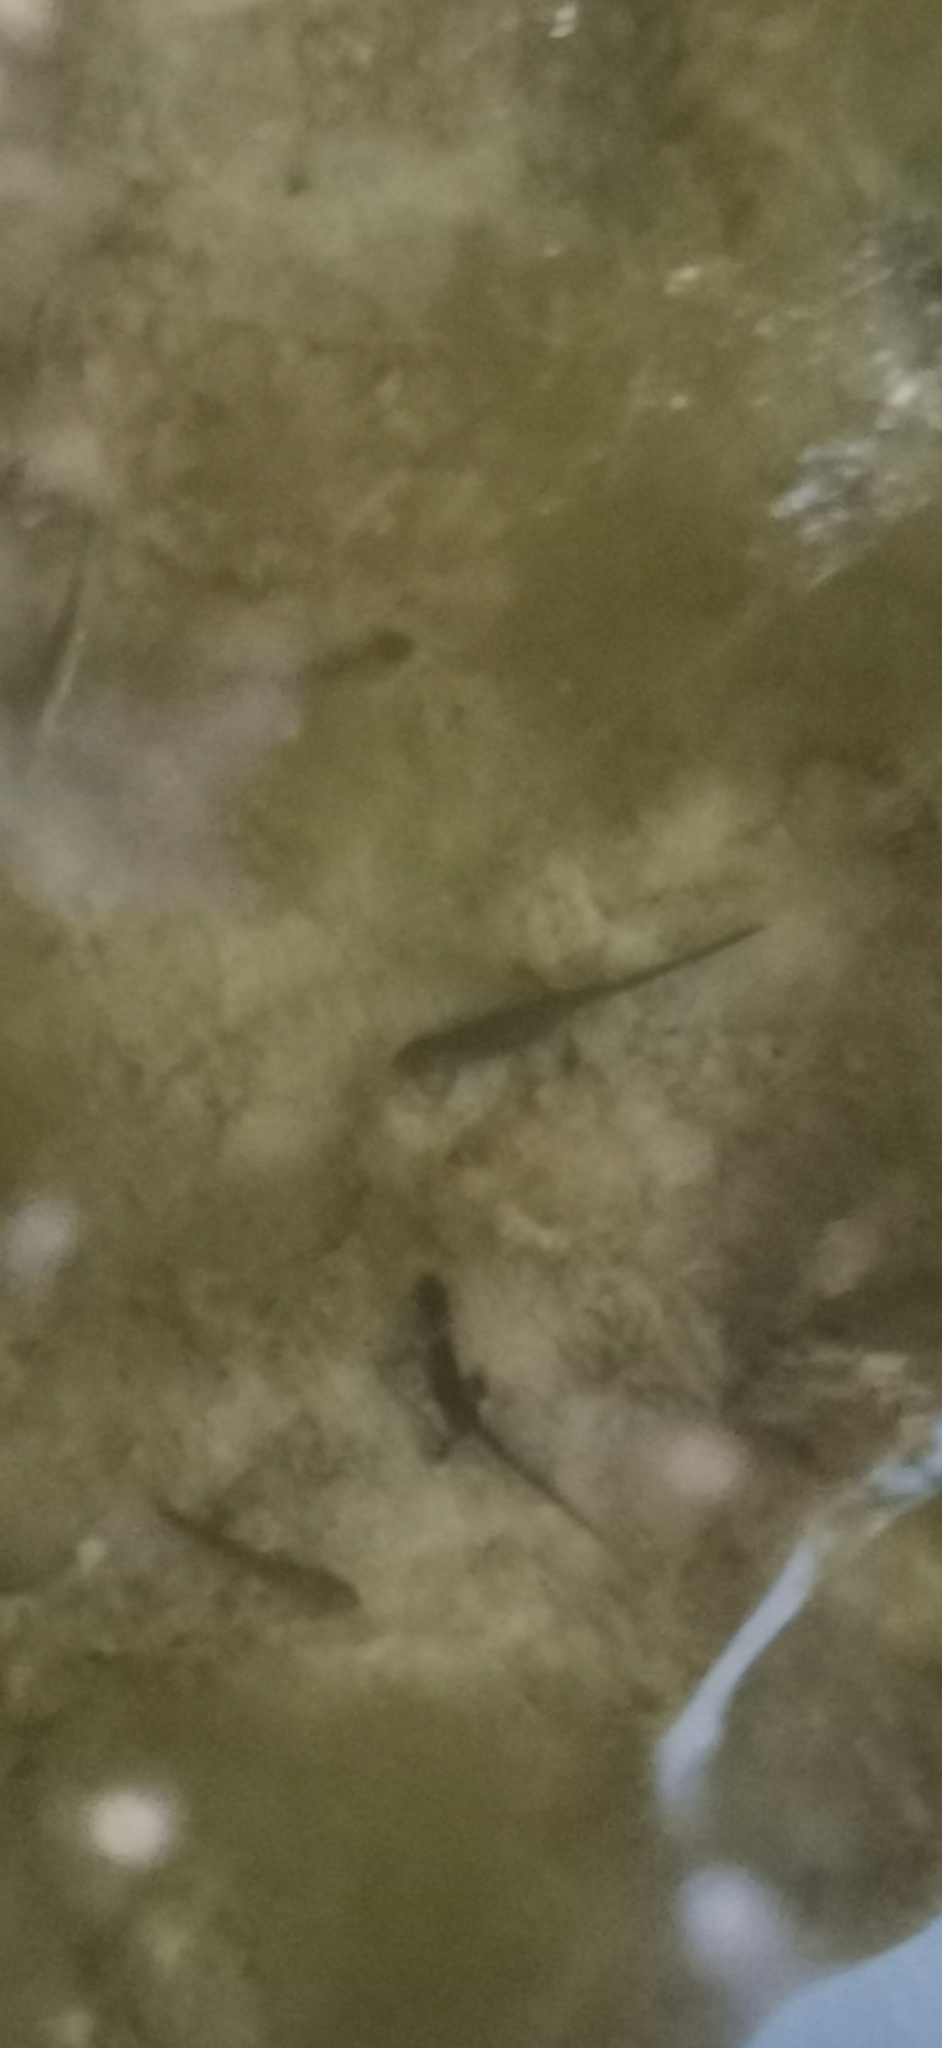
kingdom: Animalia
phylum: Chordata
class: Amphibia
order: Caudata
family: Salamandridae
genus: Lissotriton
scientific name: Lissotriton italicus
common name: Italian newt
